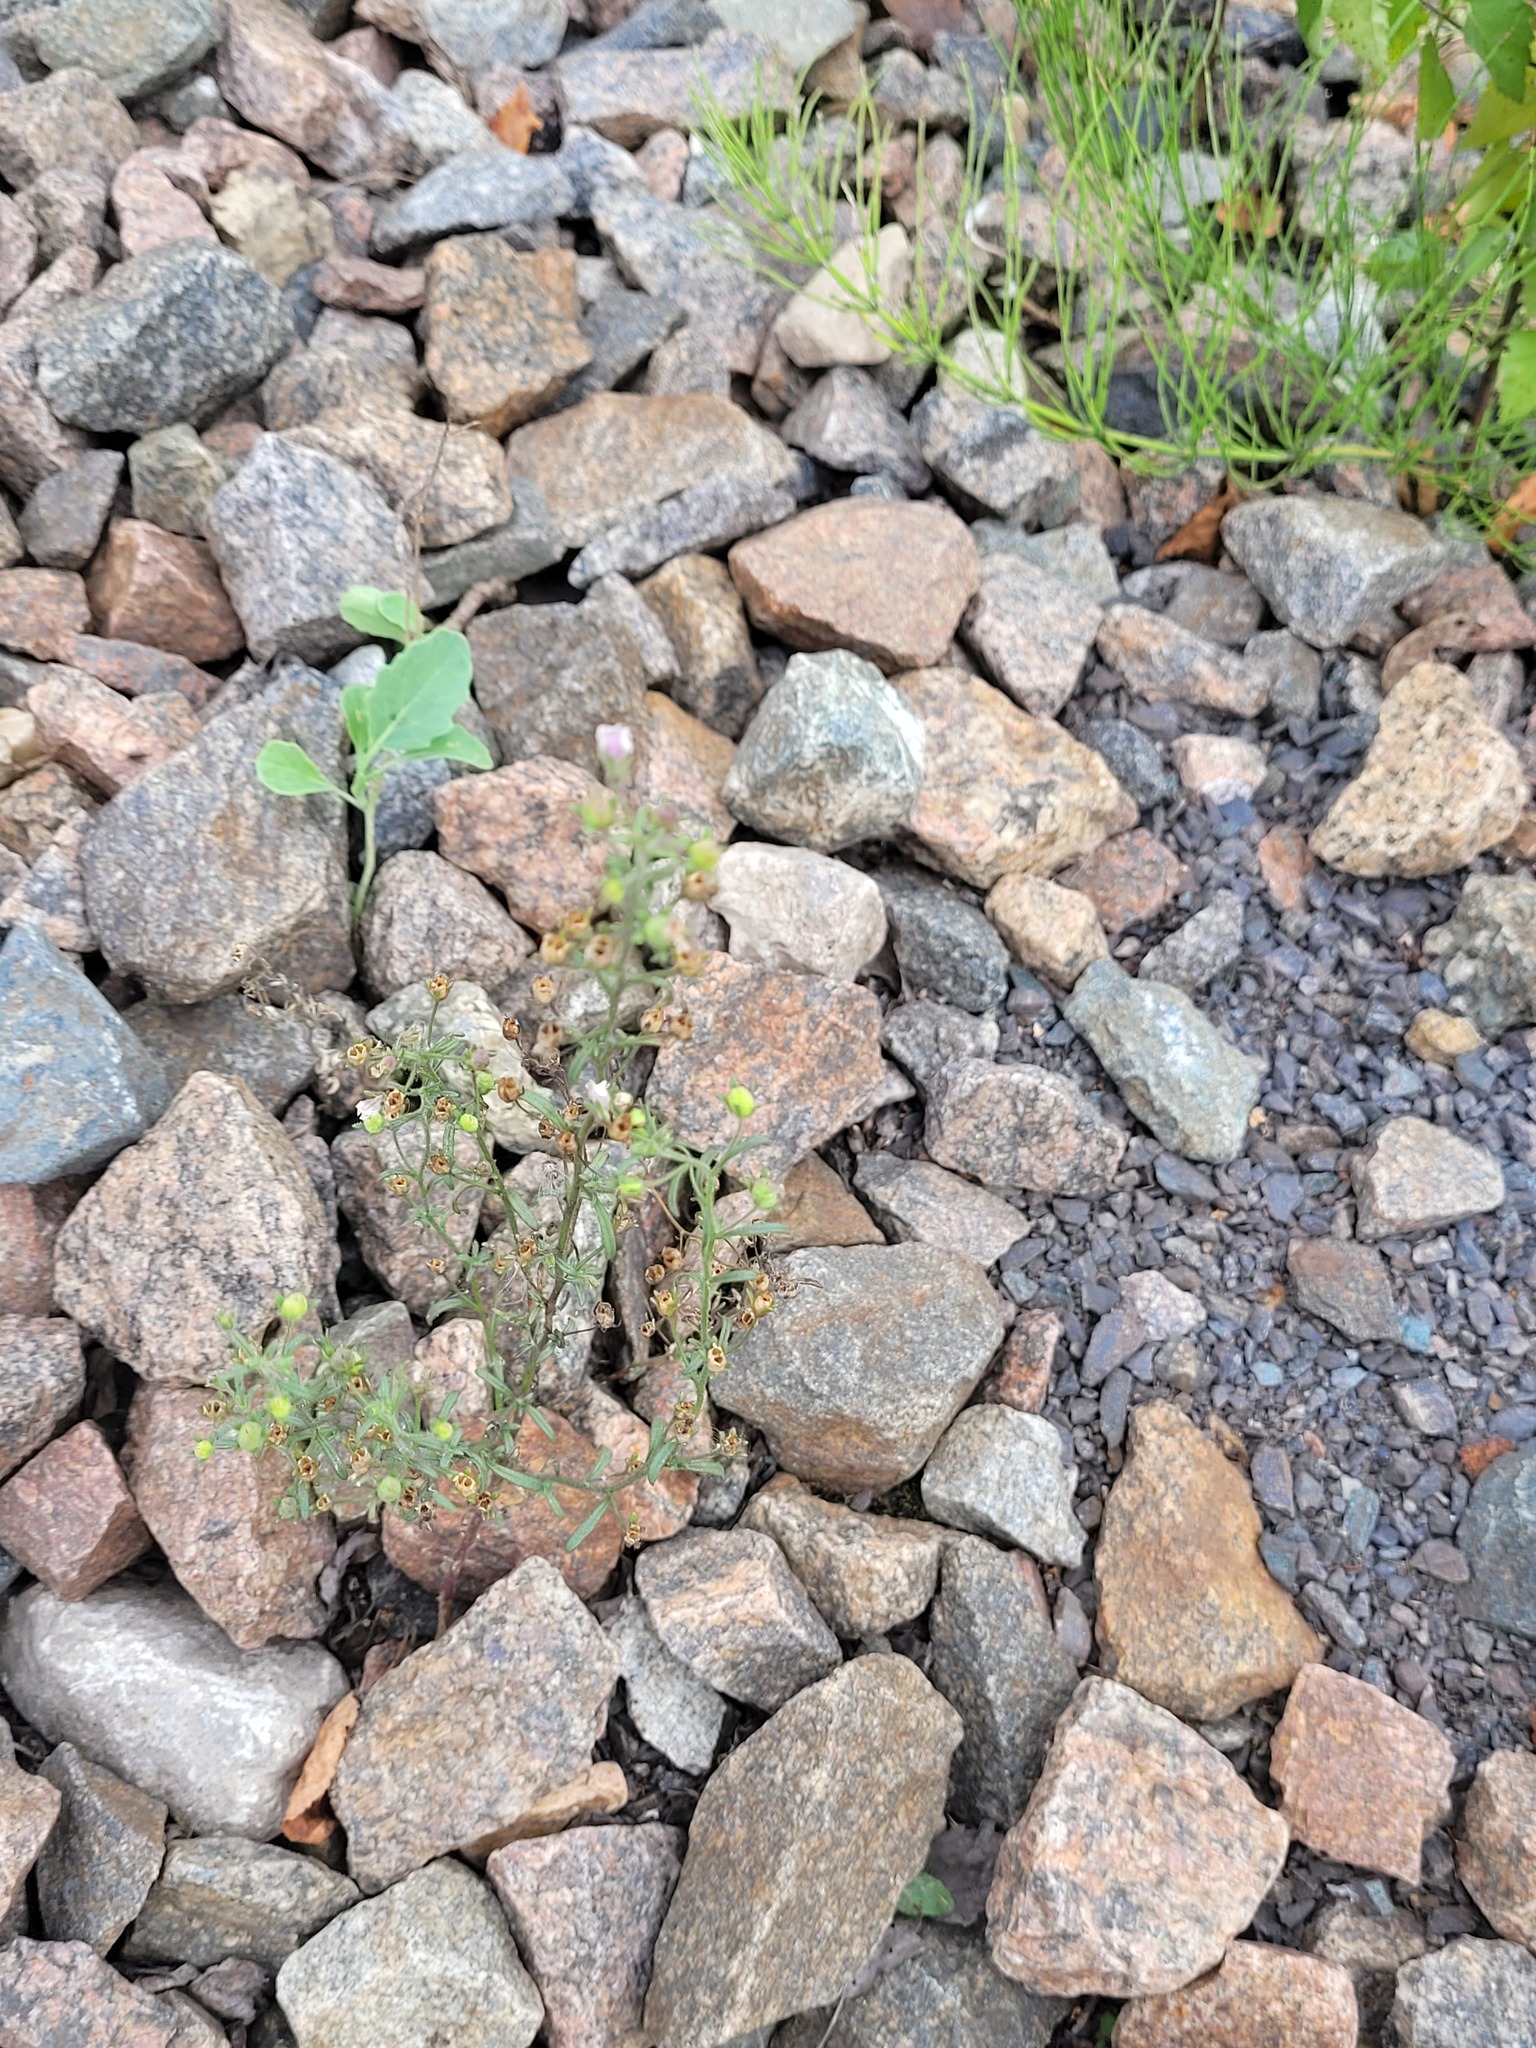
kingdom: Plantae
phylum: Tracheophyta
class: Magnoliopsida
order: Lamiales
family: Plantaginaceae
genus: Chaenorhinum
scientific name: Chaenorhinum minus
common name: Dwarf snapdragon
